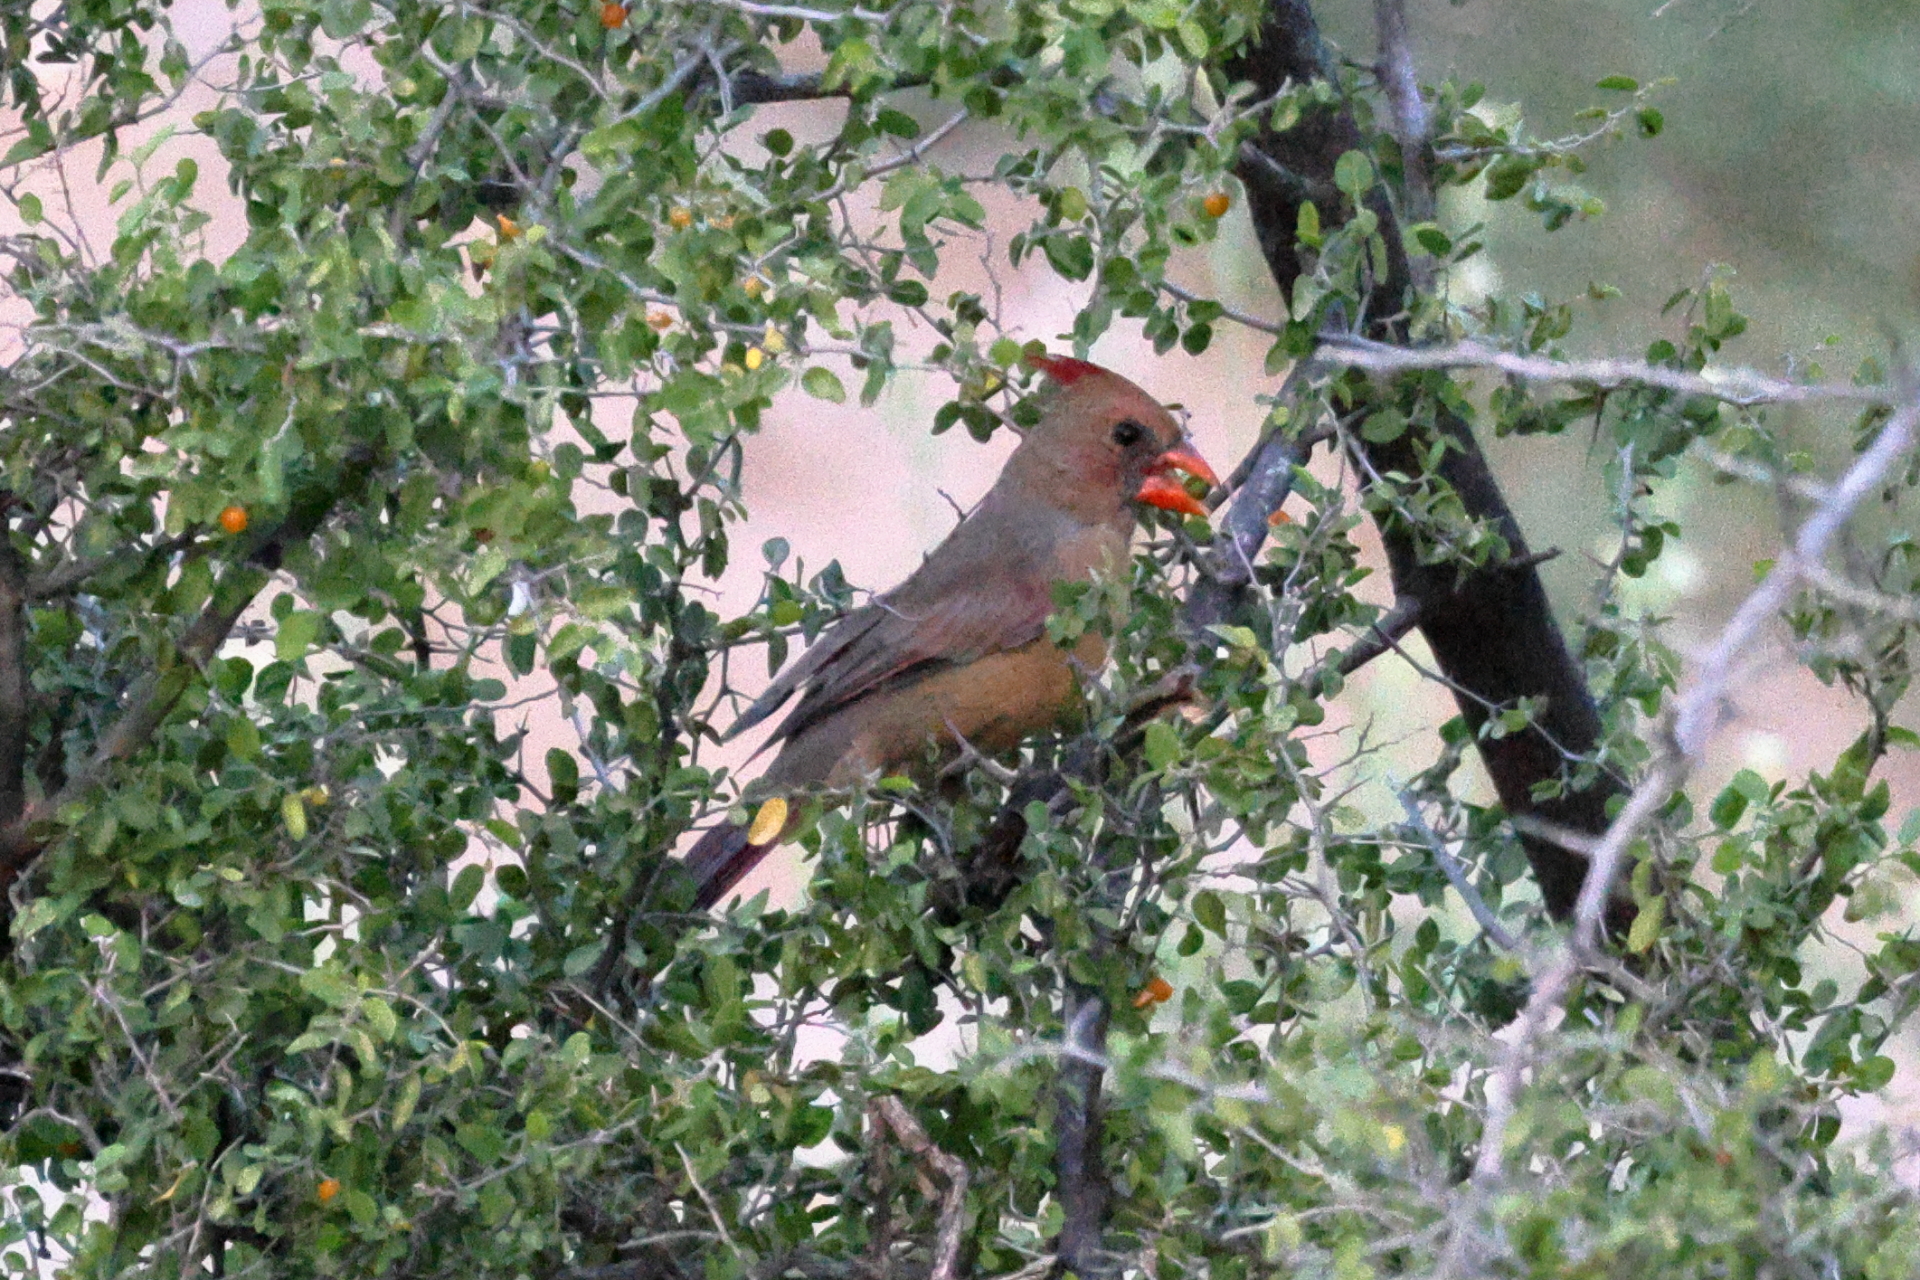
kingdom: Animalia
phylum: Chordata
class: Aves
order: Passeriformes
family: Cardinalidae
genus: Cardinalis
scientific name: Cardinalis cardinalis
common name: Northern cardinal
